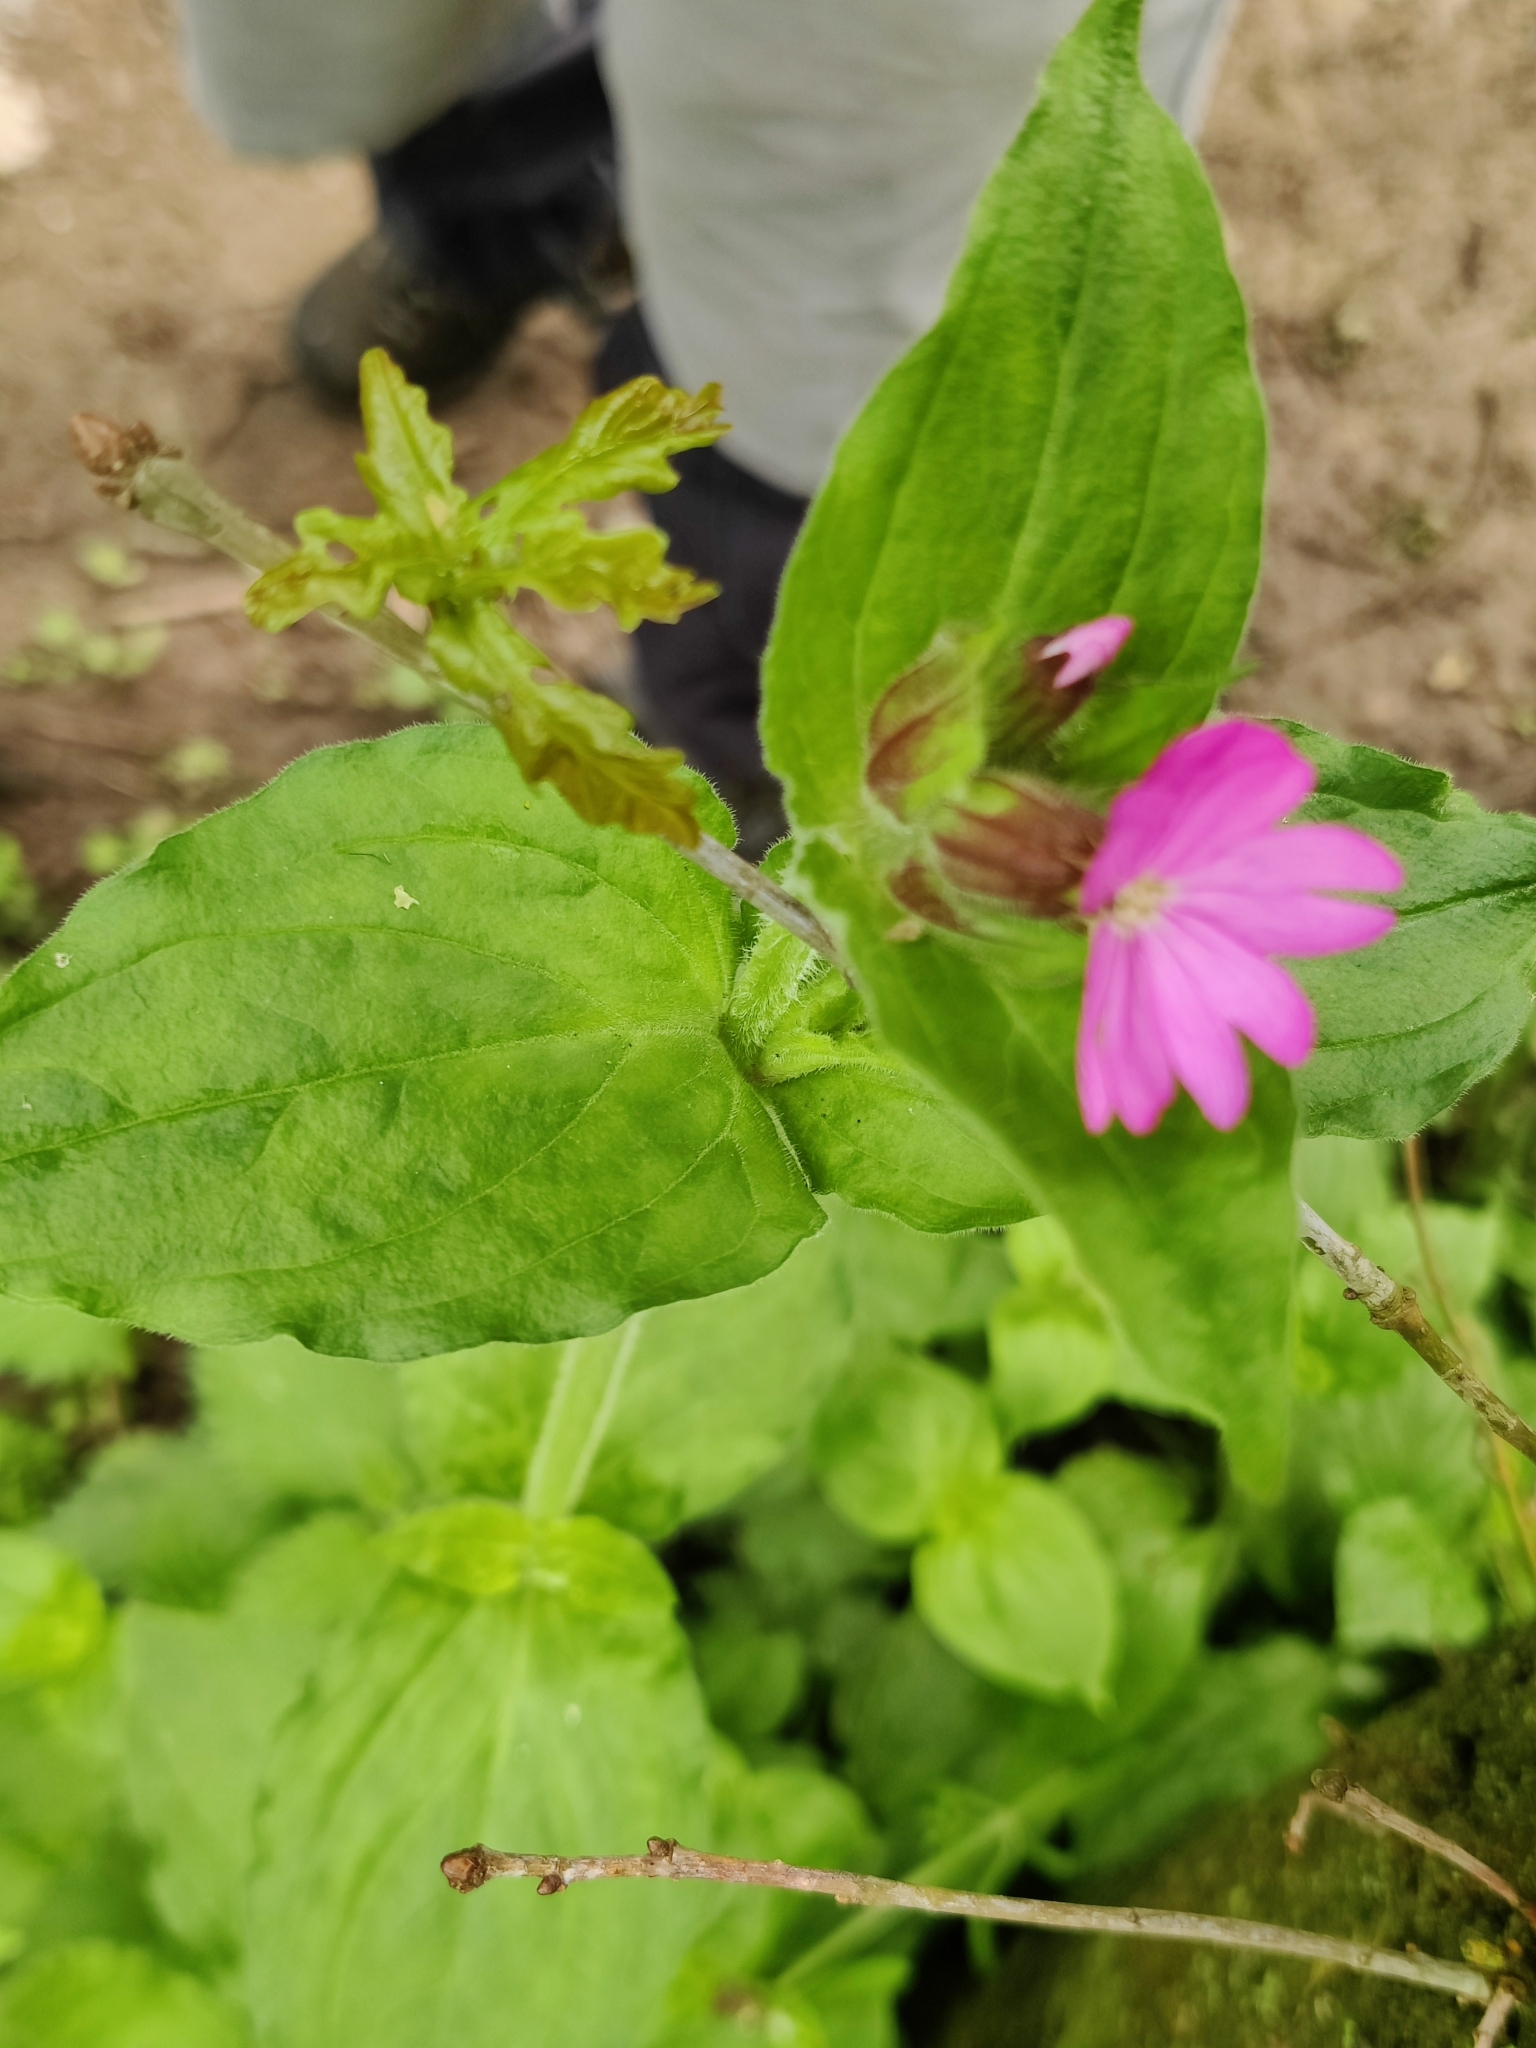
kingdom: Plantae
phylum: Tracheophyta
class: Magnoliopsida
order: Caryophyllales
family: Caryophyllaceae
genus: Silene
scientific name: Silene dioica
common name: Red campion
